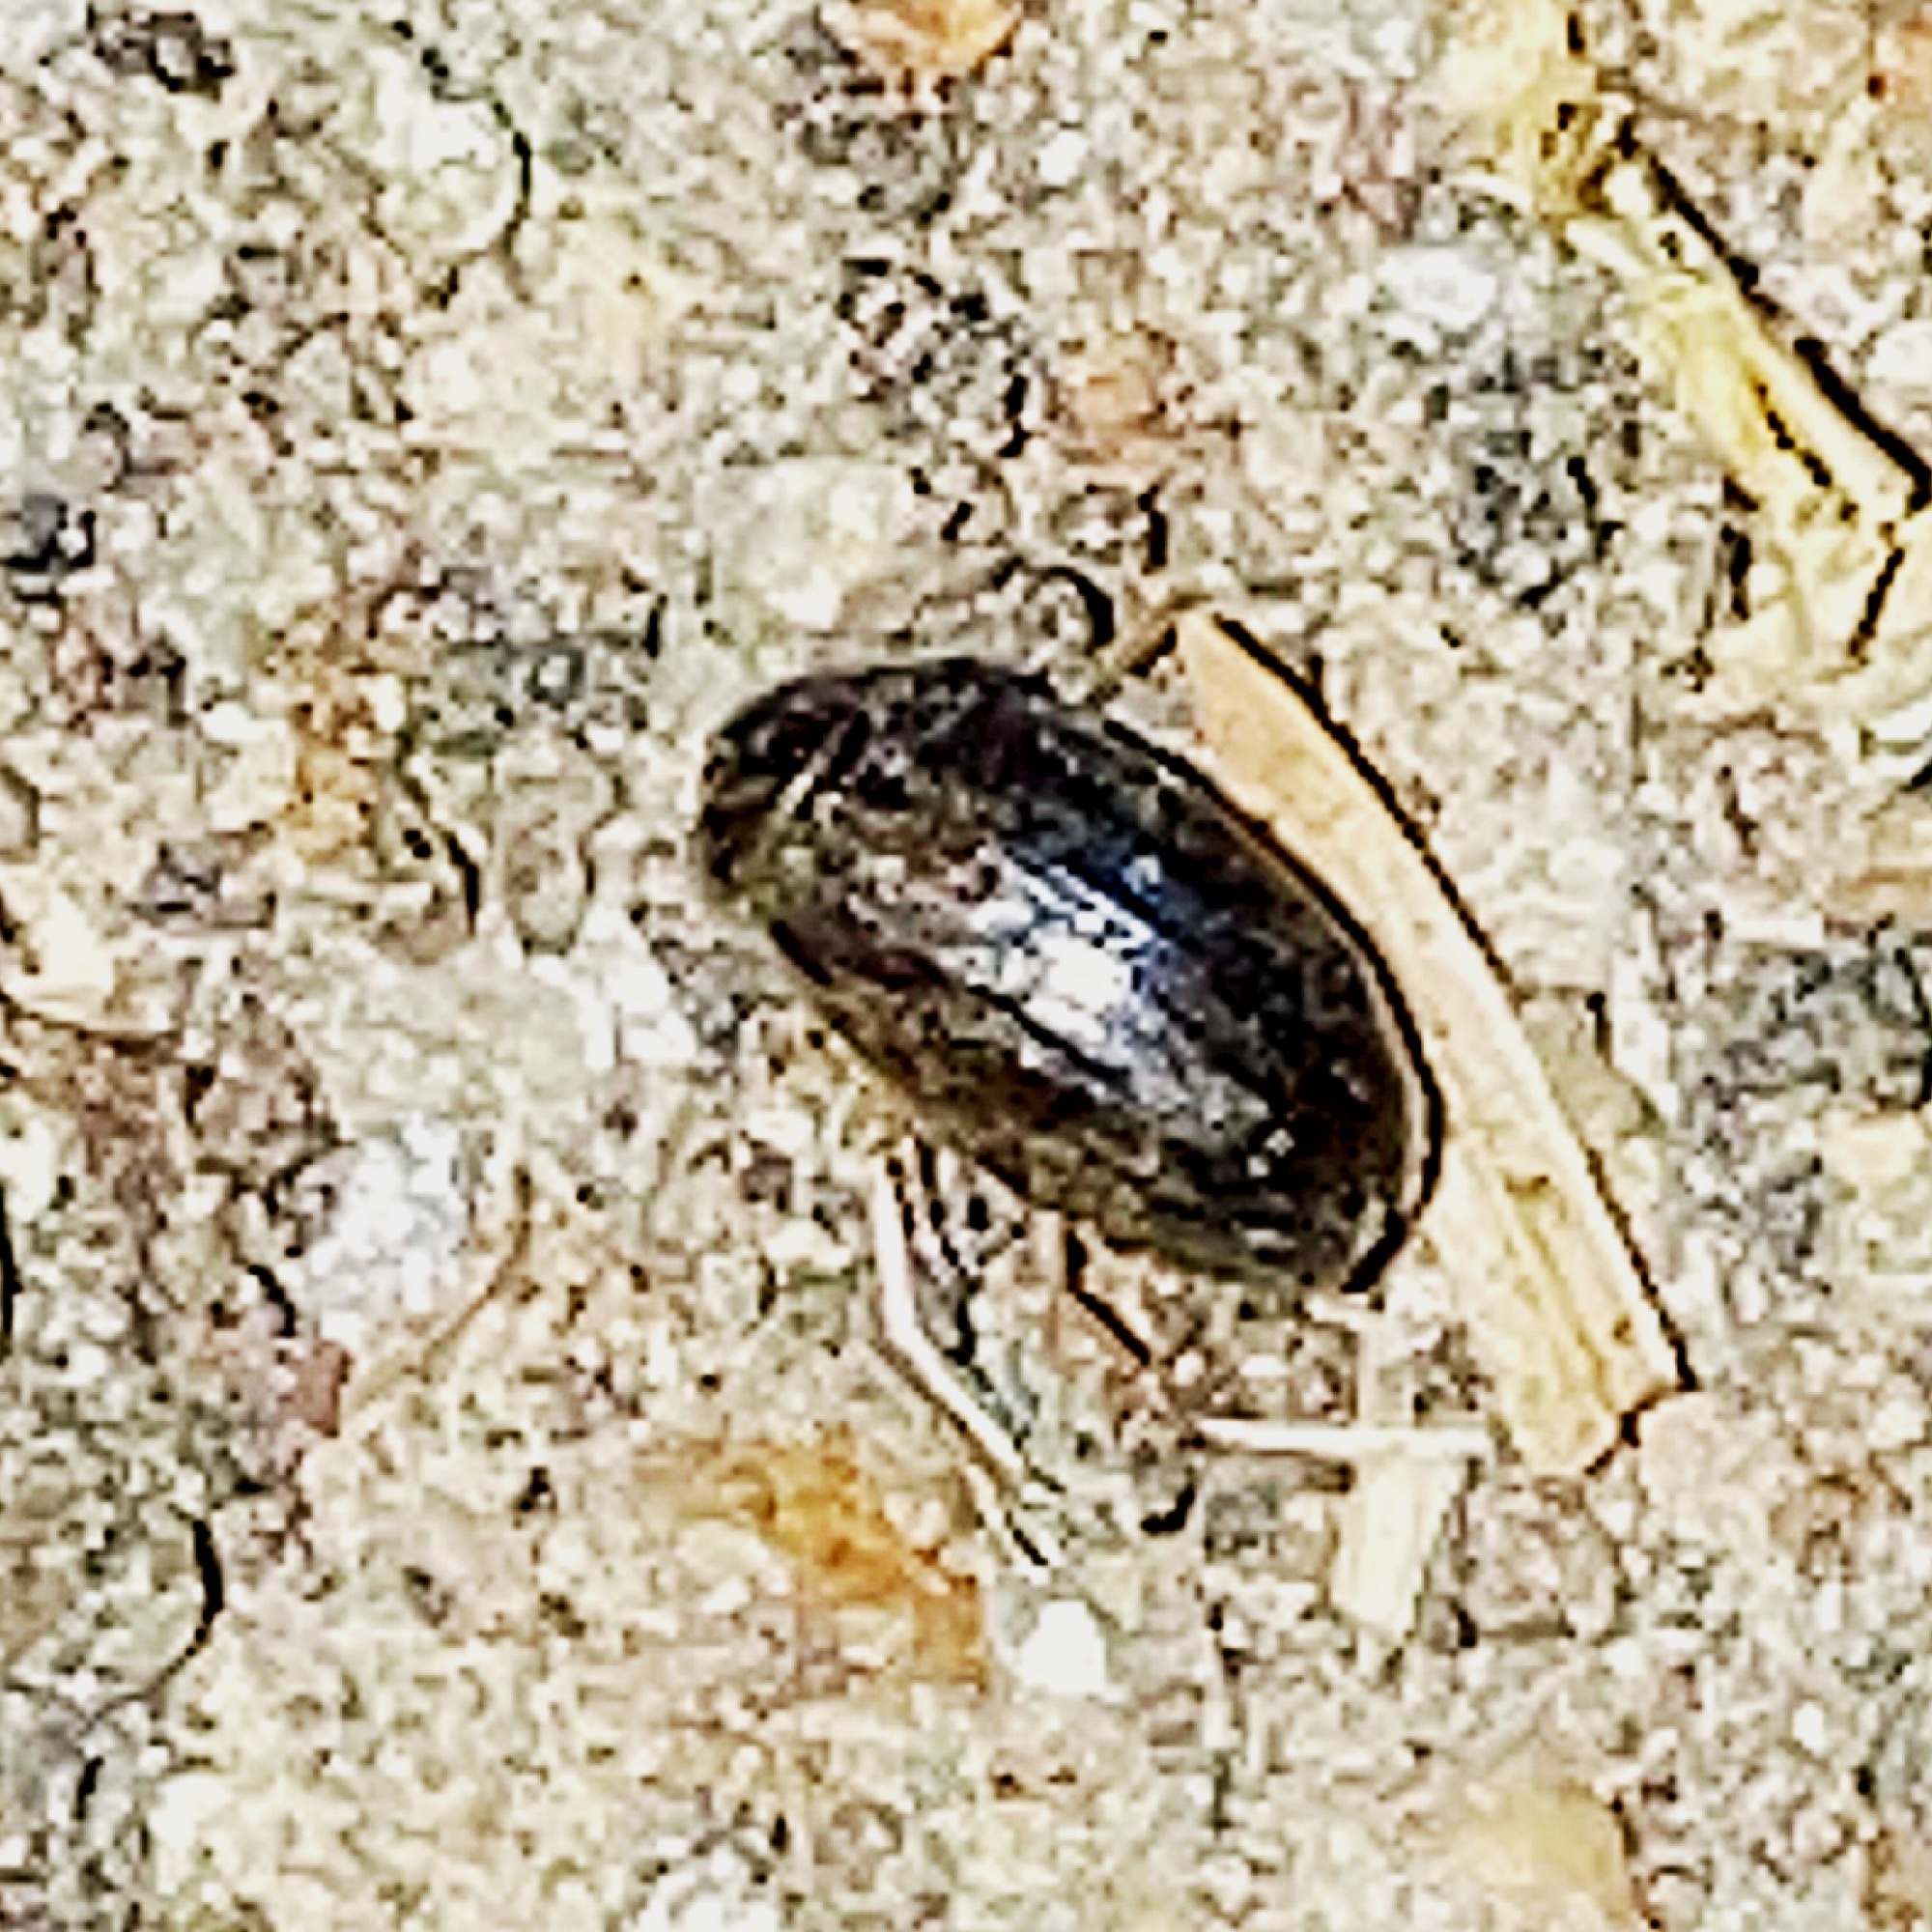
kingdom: Animalia
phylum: Arthropoda
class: Insecta
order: Coleoptera
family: Hydrophilidae
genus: Berosus
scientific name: Berosus
